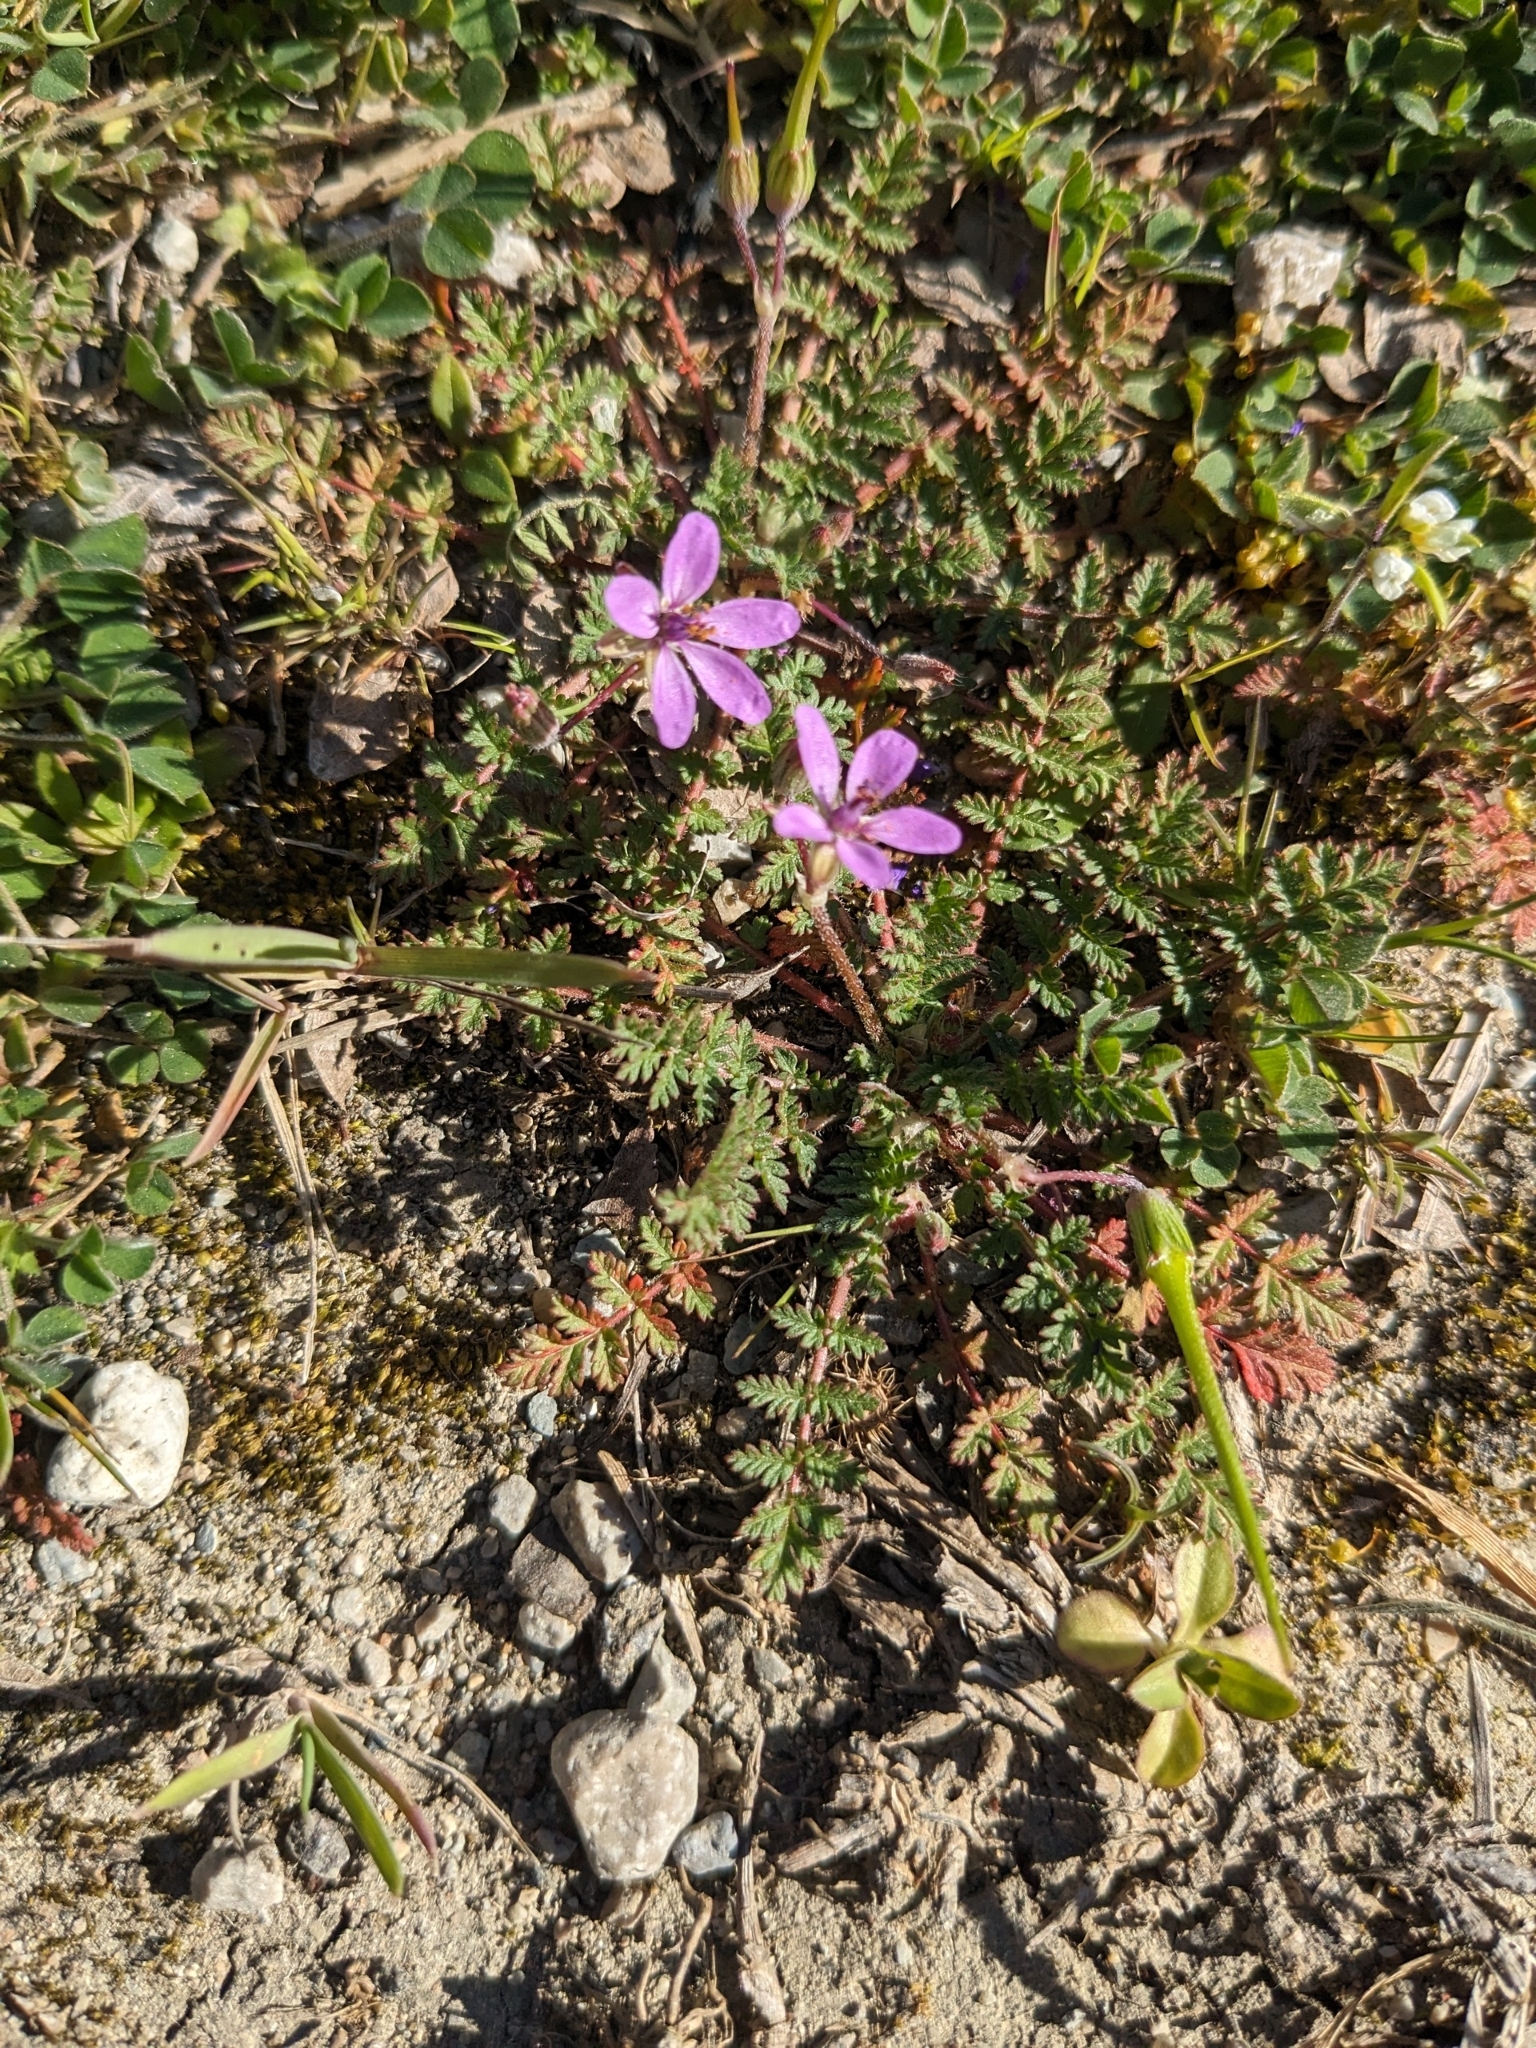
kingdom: Plantae
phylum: Tracheophyta
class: Magnoliopsida
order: Geraniales
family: Geraniaceae
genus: Erodium
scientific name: Erodium cicutarium
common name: Common stork's-bill
